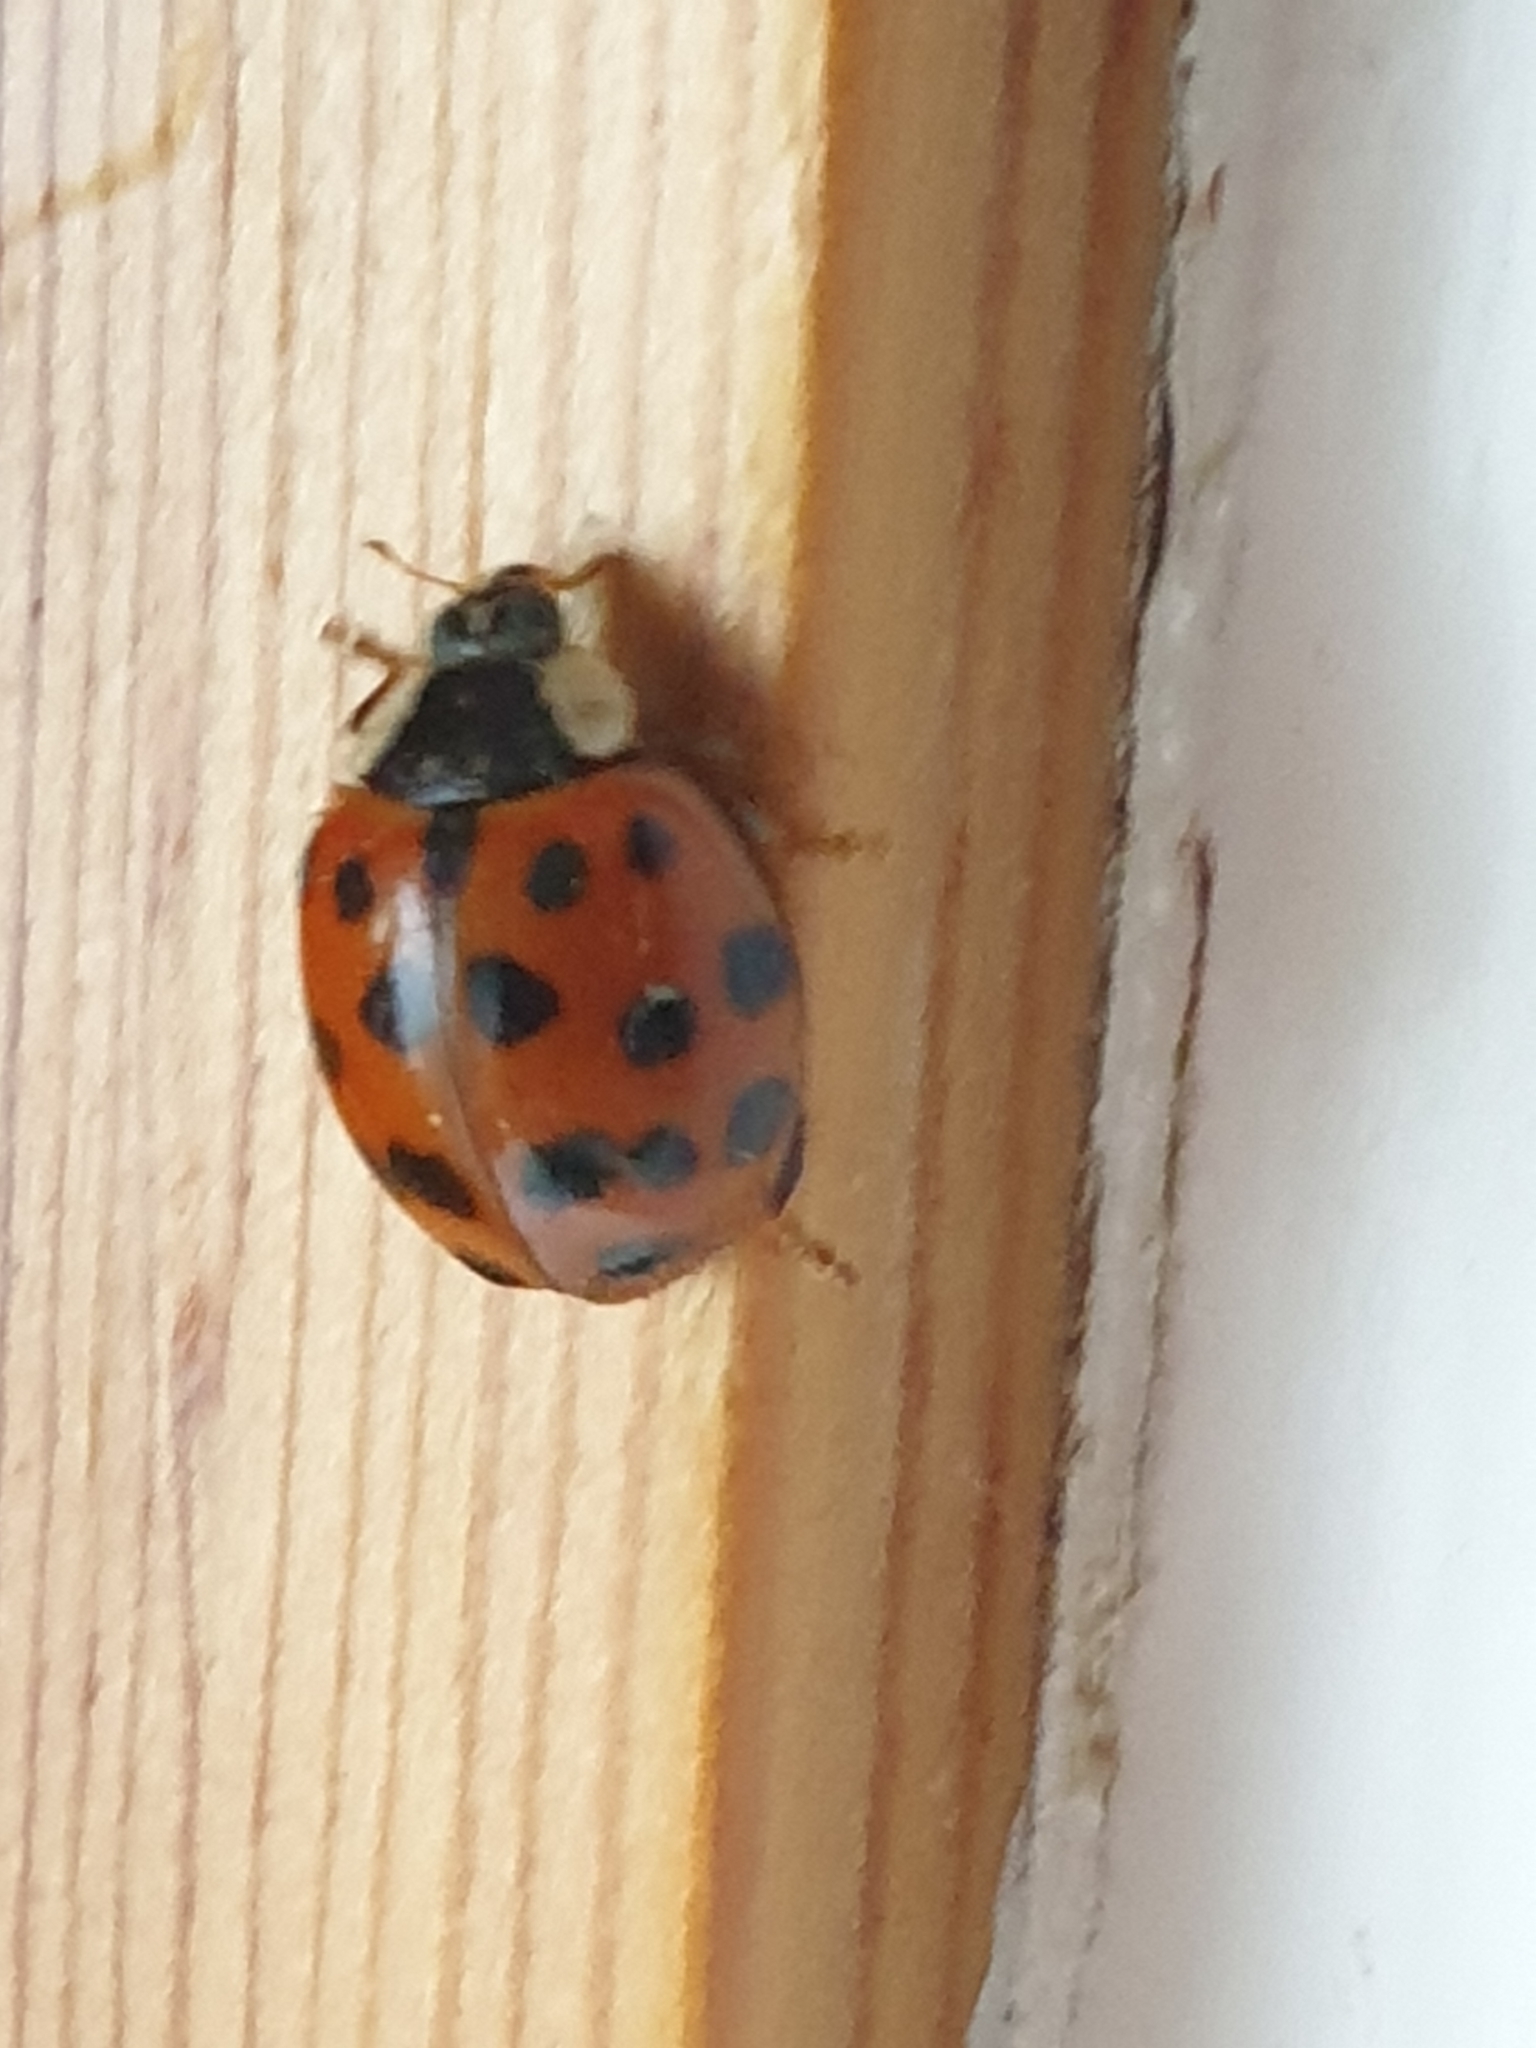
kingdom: Animalia
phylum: Arthropoda
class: Insecta
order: Coleoptera
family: Coccinellidae
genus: Harmonia
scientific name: Harmonia axyridis
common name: Harlequin ladybird
